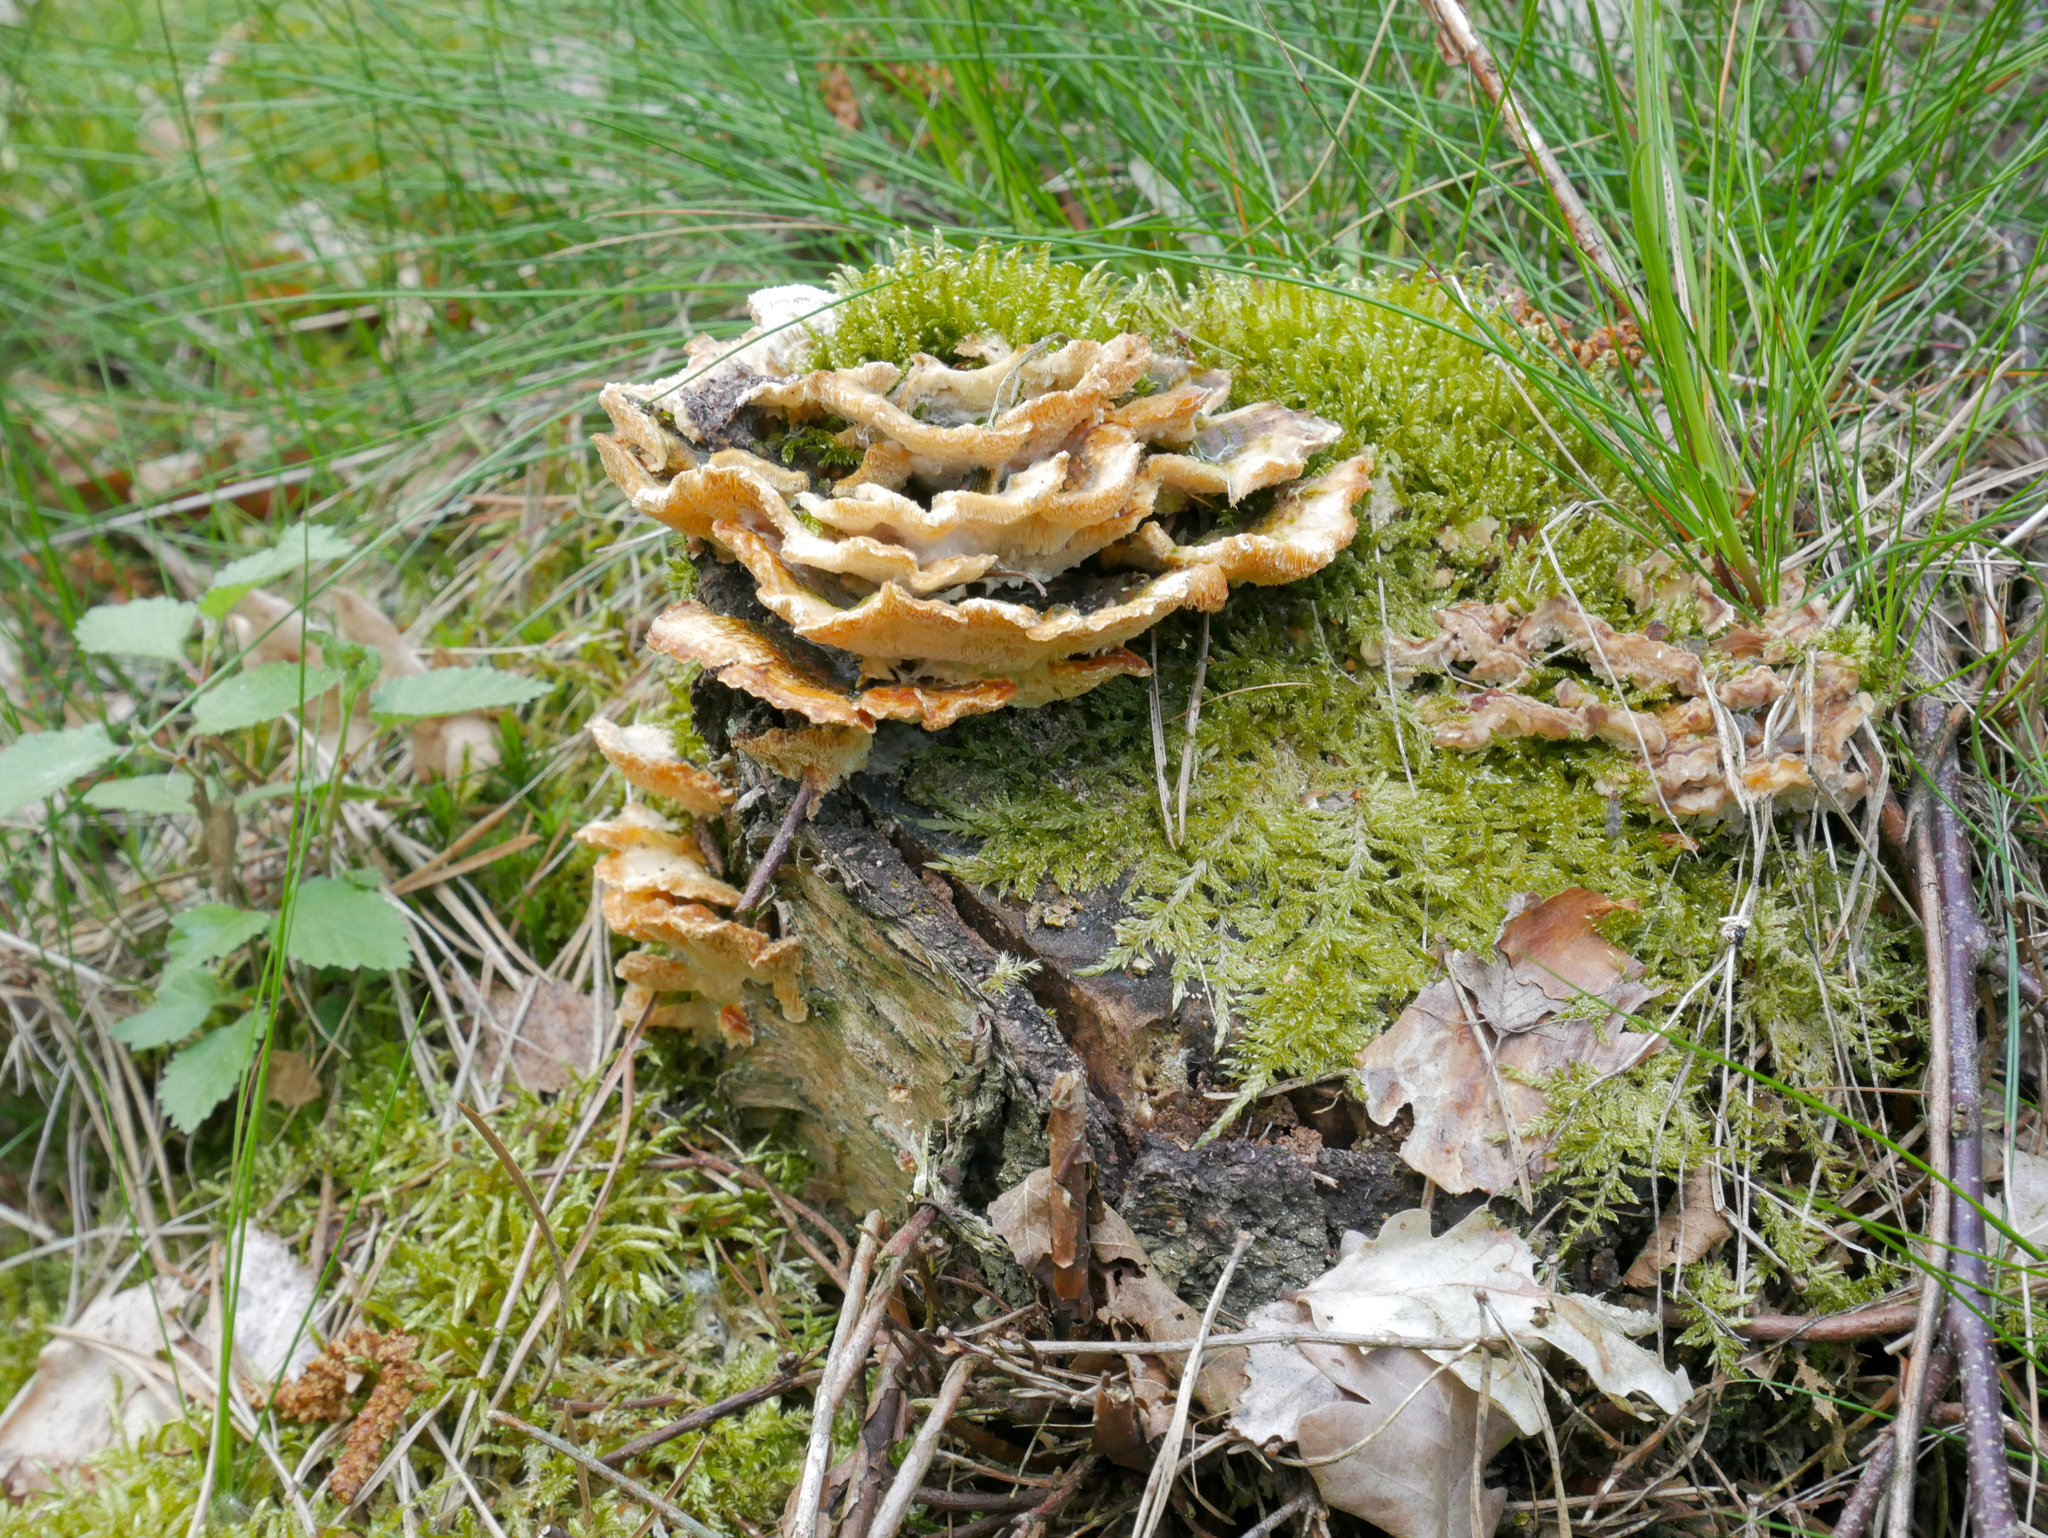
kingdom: Fungi
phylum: Basidiomycota
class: Agaricomycetes
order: Russulales
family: Stereaceae
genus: Stereum
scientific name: Stereum hirsutum
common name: Hairy curtain crust
